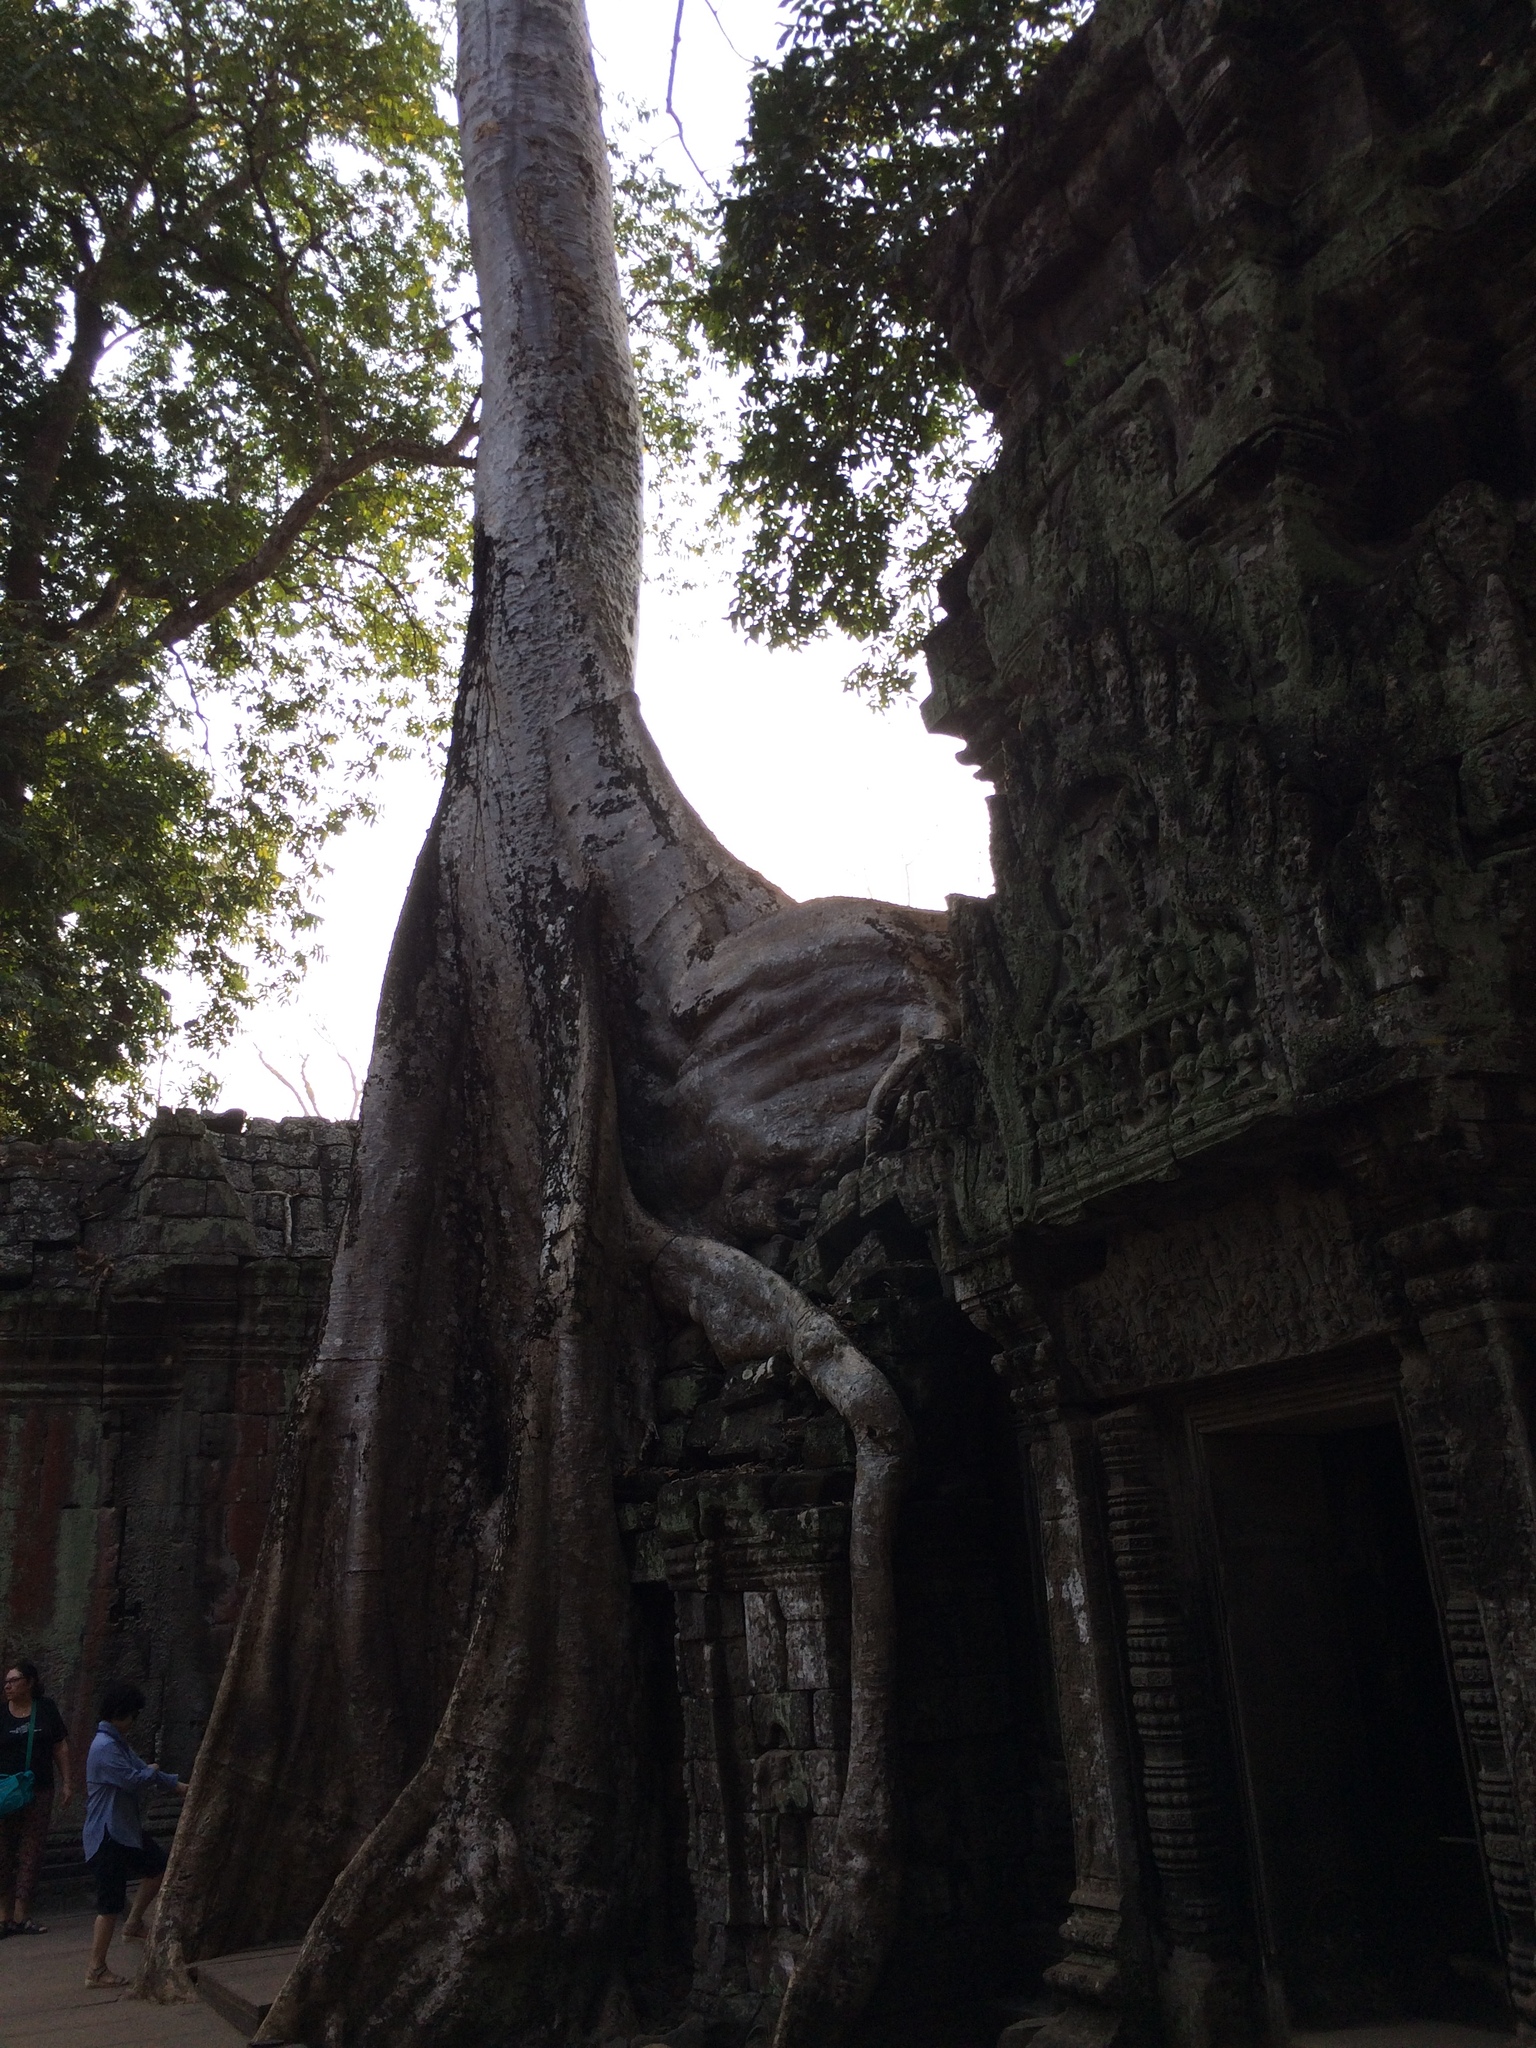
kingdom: Plantae
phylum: Tracheophyta
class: Magnoliopsida
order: Cucurbitales
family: Tetramelaceae
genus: Tetrameles
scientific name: Tetrameles nudiflora
